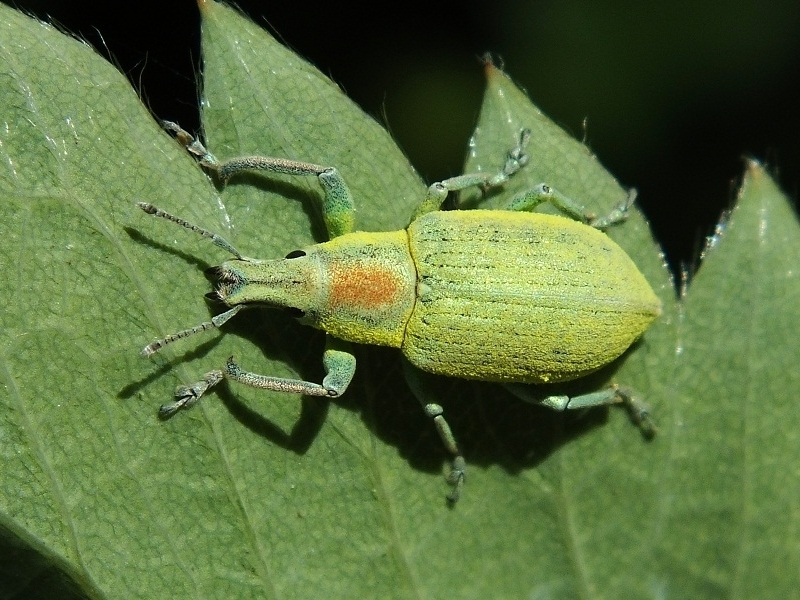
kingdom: Animalia
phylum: Arthropoda
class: Insecta
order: Coleoptera
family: Curculionidae
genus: Chlorophanus
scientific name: Chlorophanus micans
